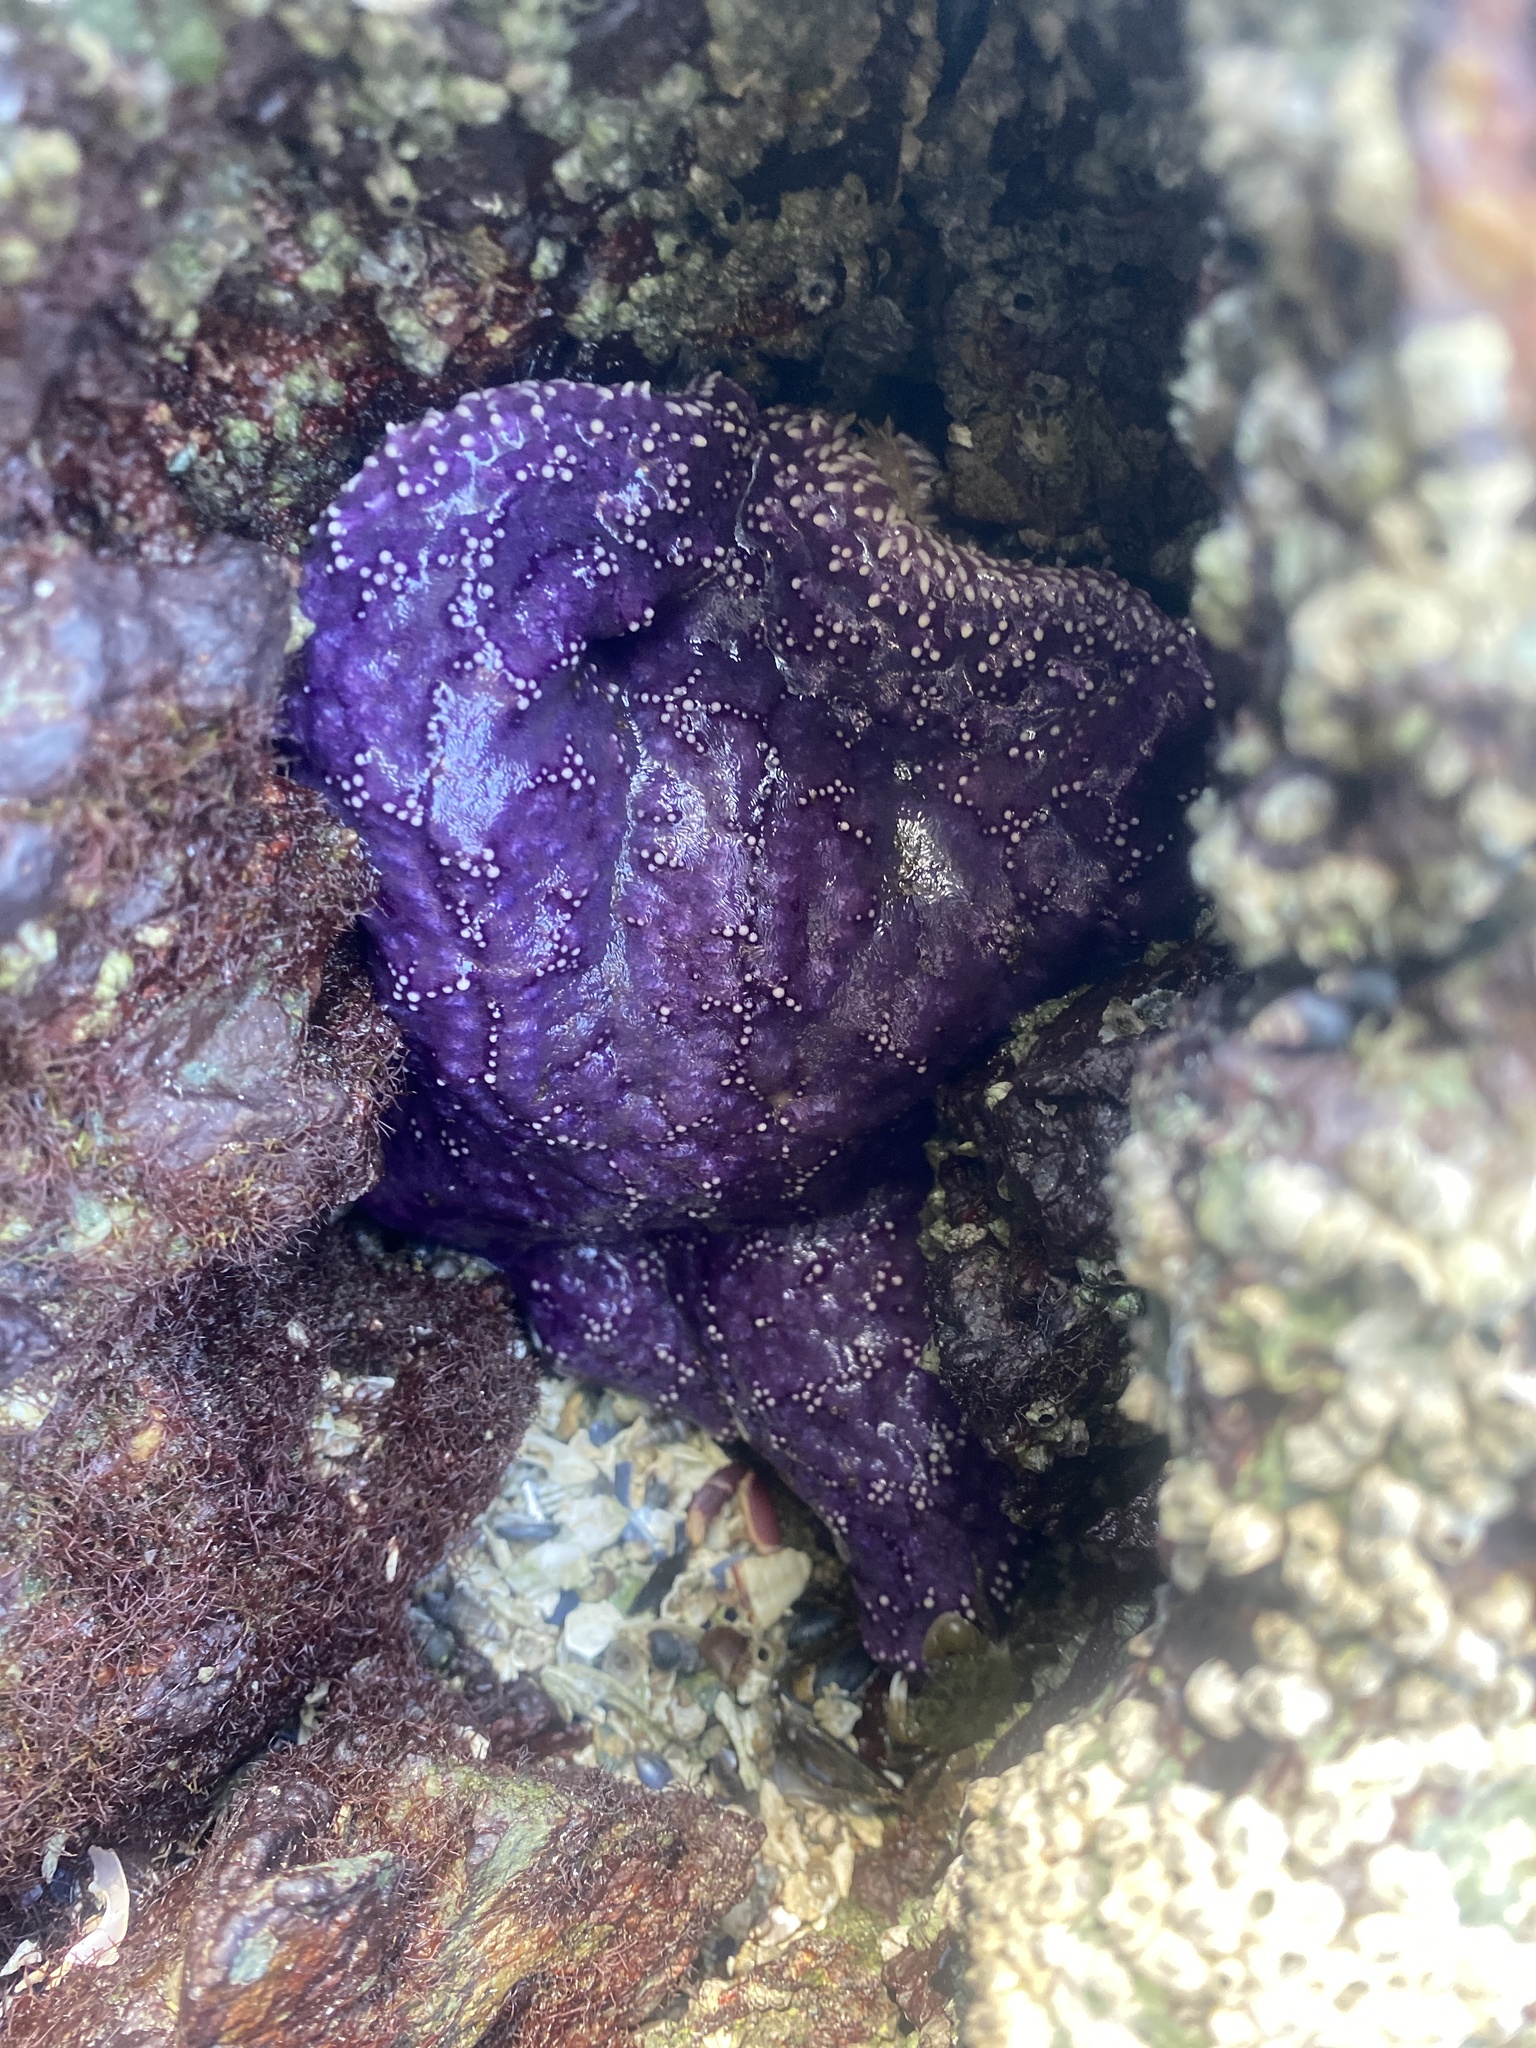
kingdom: Animalia
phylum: Echinodermata
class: Asteroidea
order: Forcipulatida
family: Asteriidae
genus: Pisaster
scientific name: Pisaster ochraceus
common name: Ochre stars
